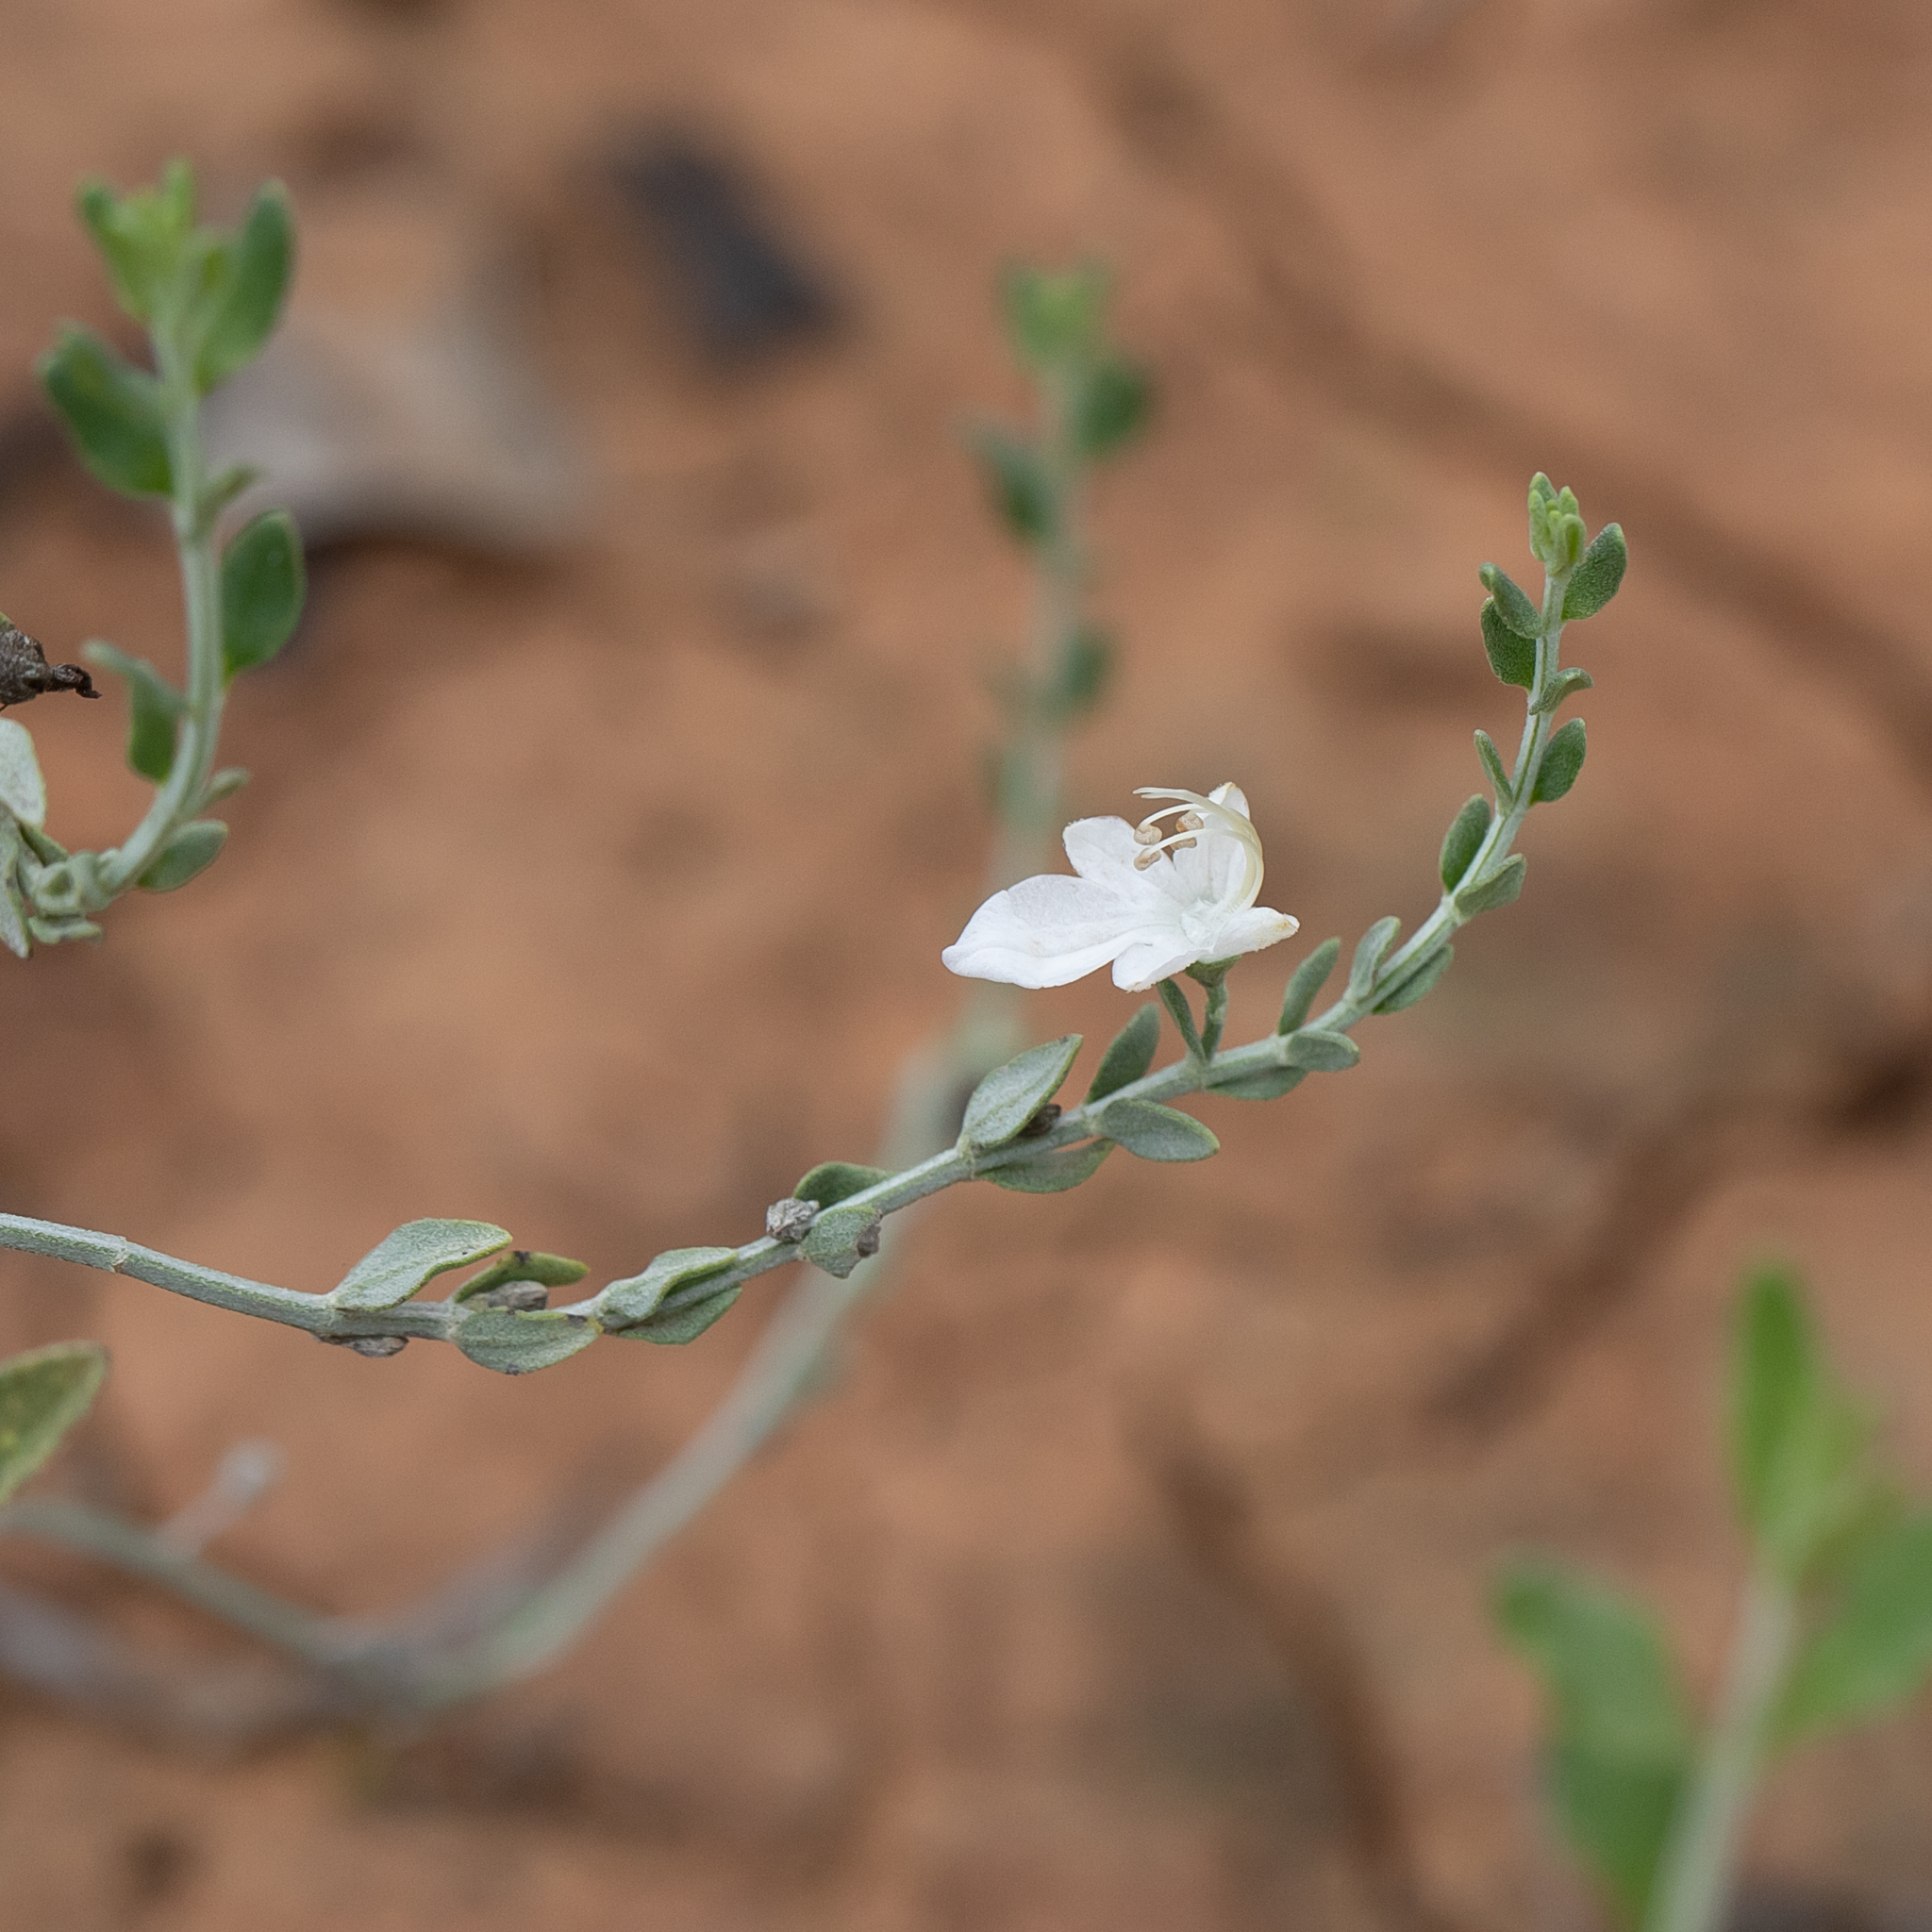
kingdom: Plantae
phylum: Tracheophyta
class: Magnoliopsida
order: Lamiales
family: Lamiaceae
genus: Teucrium
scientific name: Teucrium racemosum
